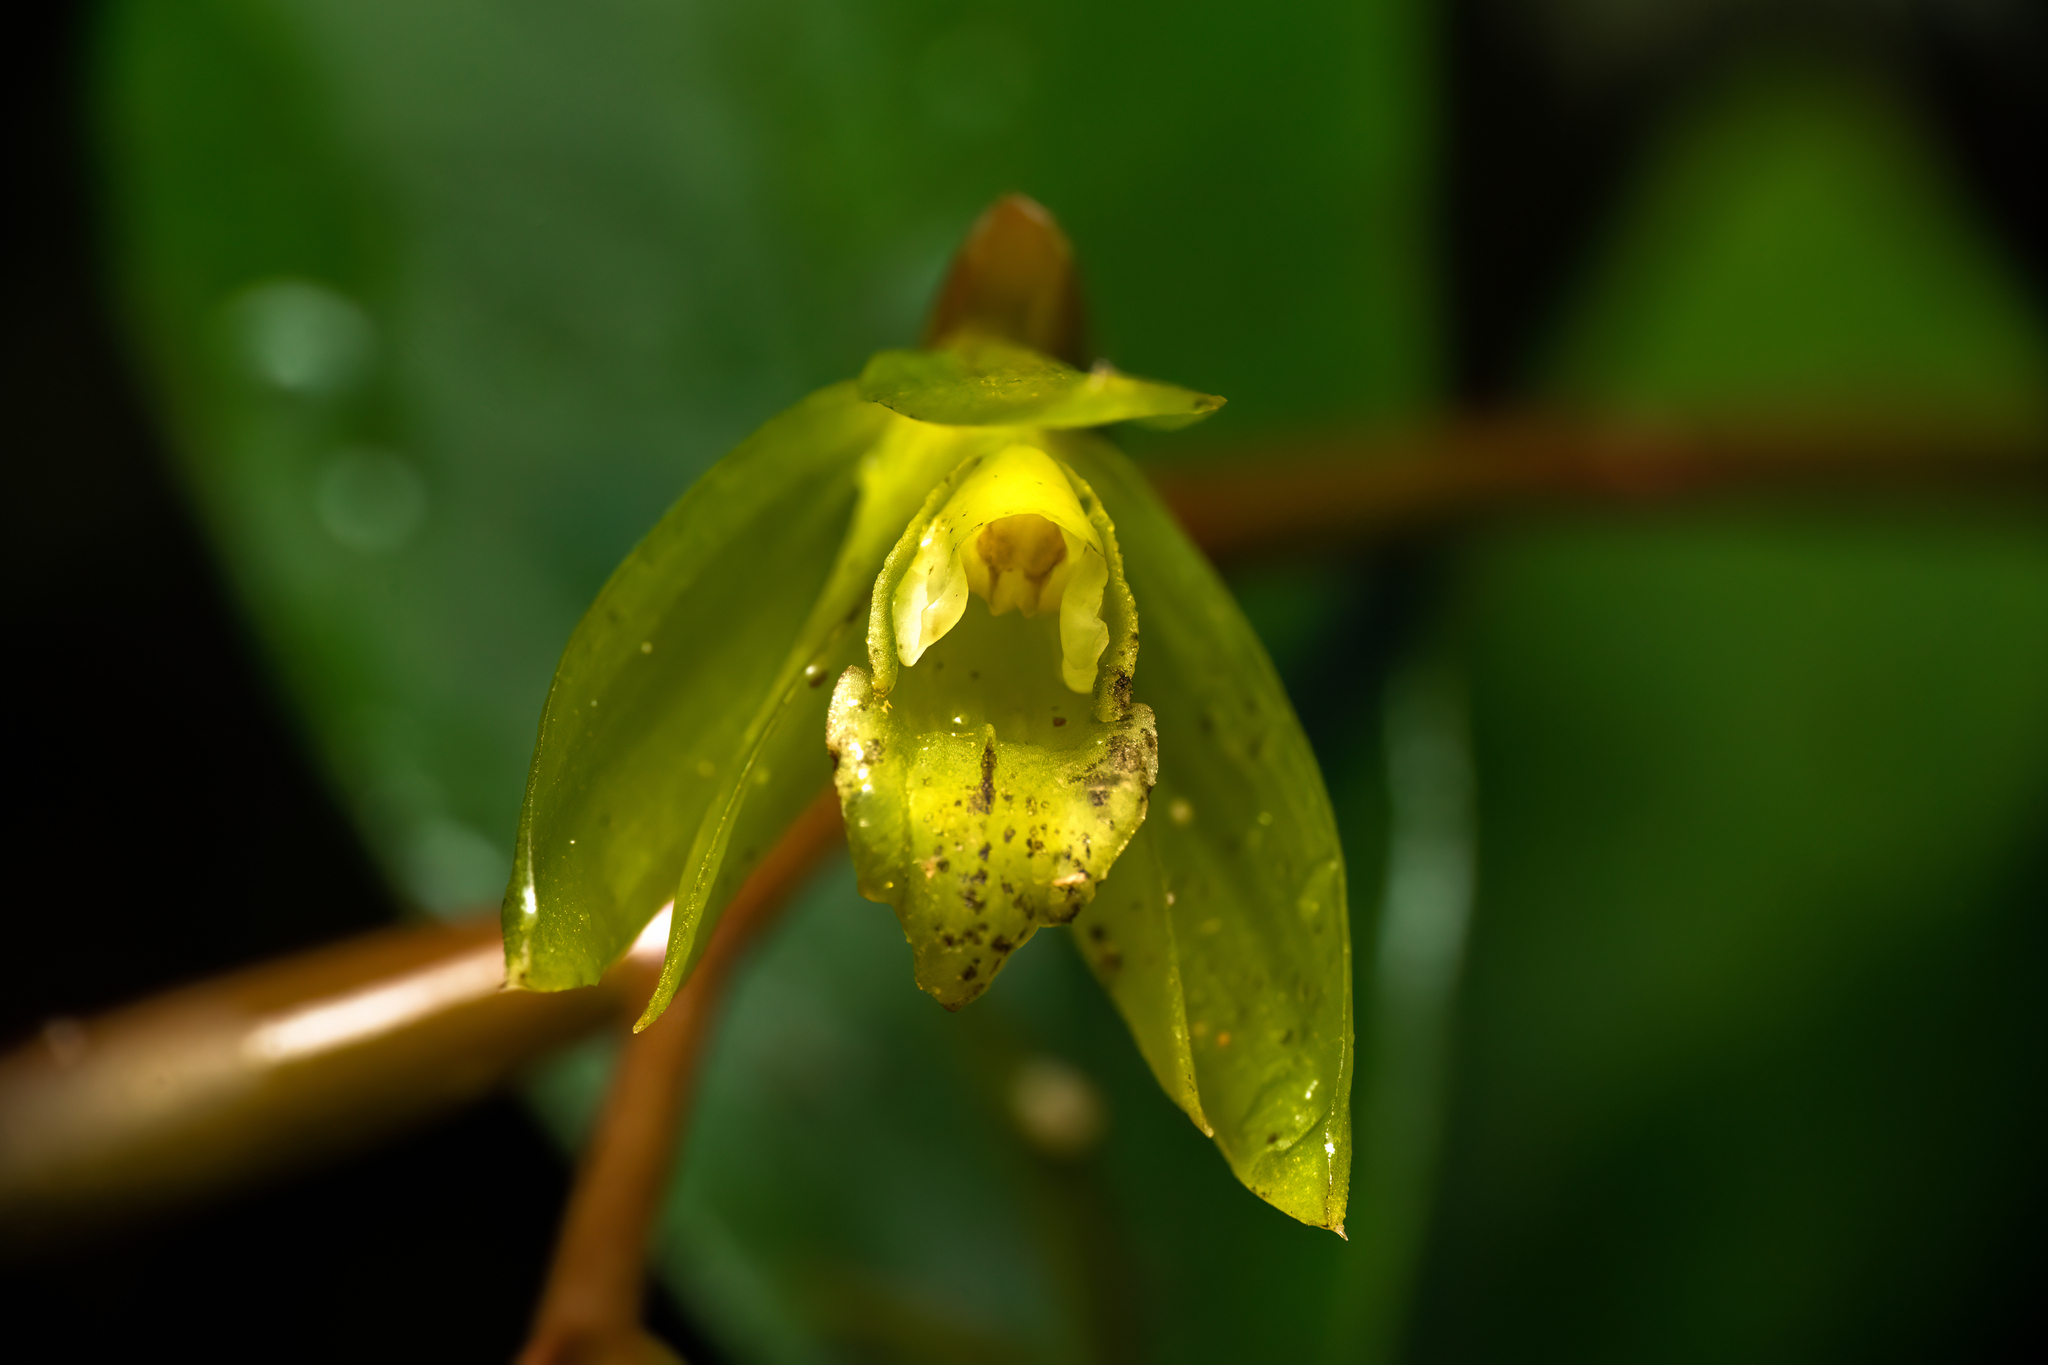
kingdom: Plantae
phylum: Tracheophyta
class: Liliopsida
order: Asparagales
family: Orchidaceae
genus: Coelogyne
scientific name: Coelogyne exalata
